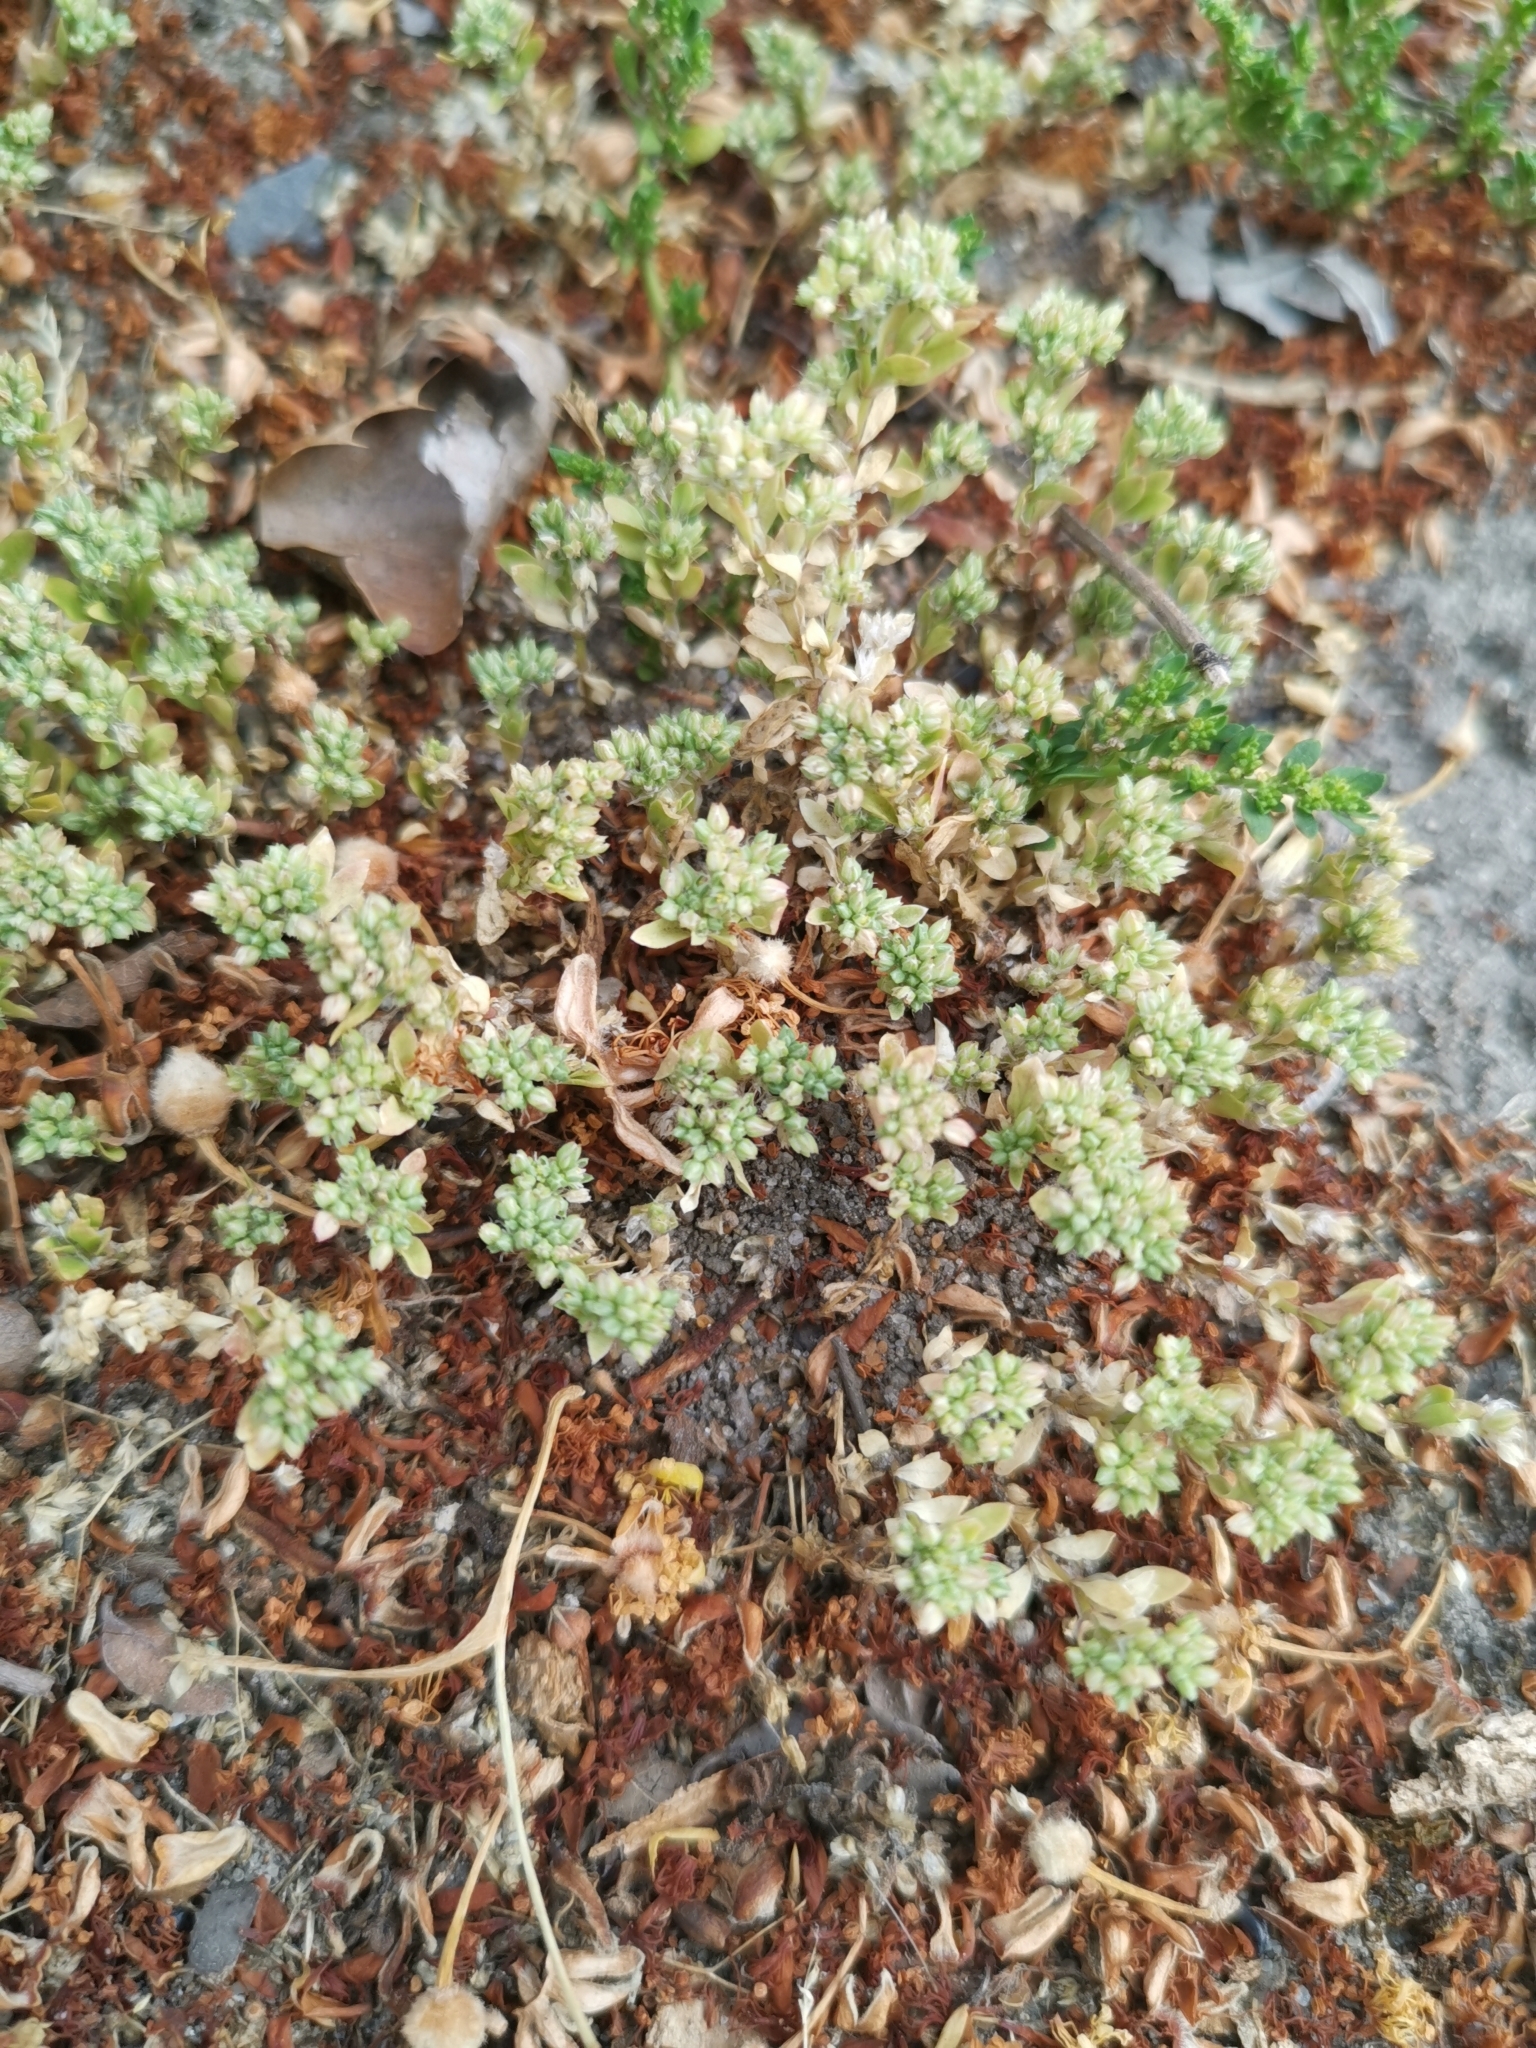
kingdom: Plantae
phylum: Tracheophyta
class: Magnoliopsida
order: Caryophyllales
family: Caryophyllaceae
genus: Polycarpon
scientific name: Polycarpon tetraphyllum
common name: Four-leaved all-seed
